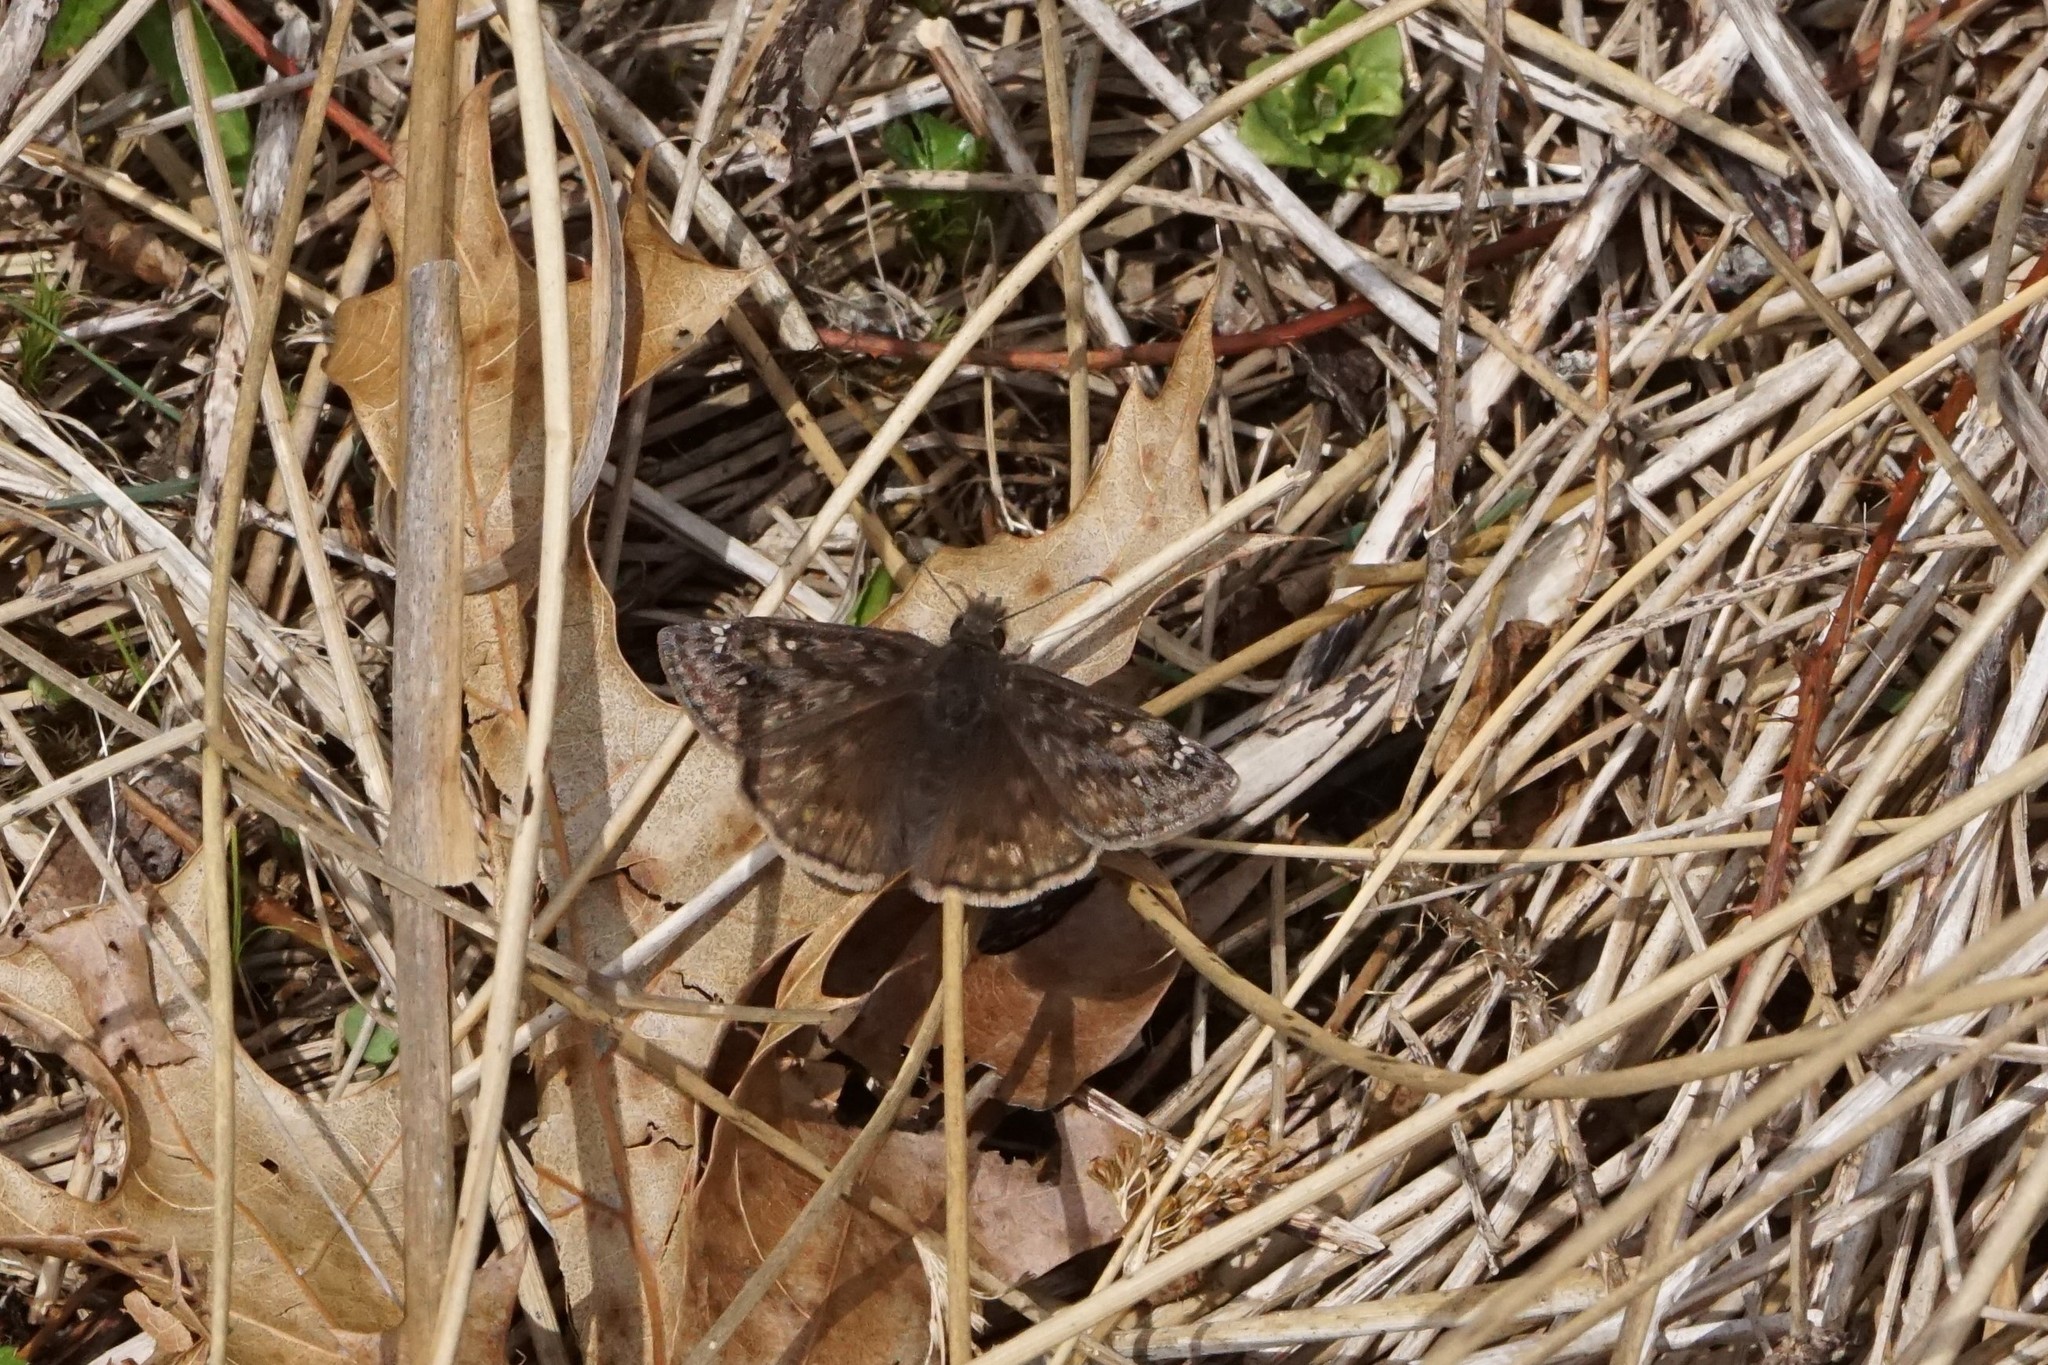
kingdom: Animalia
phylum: Arthropoda
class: Insecta
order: Lepidoptera
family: Hesperiidae
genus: Erynnis
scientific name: Erynnis juvenalis
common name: Juvenal's duskywing
